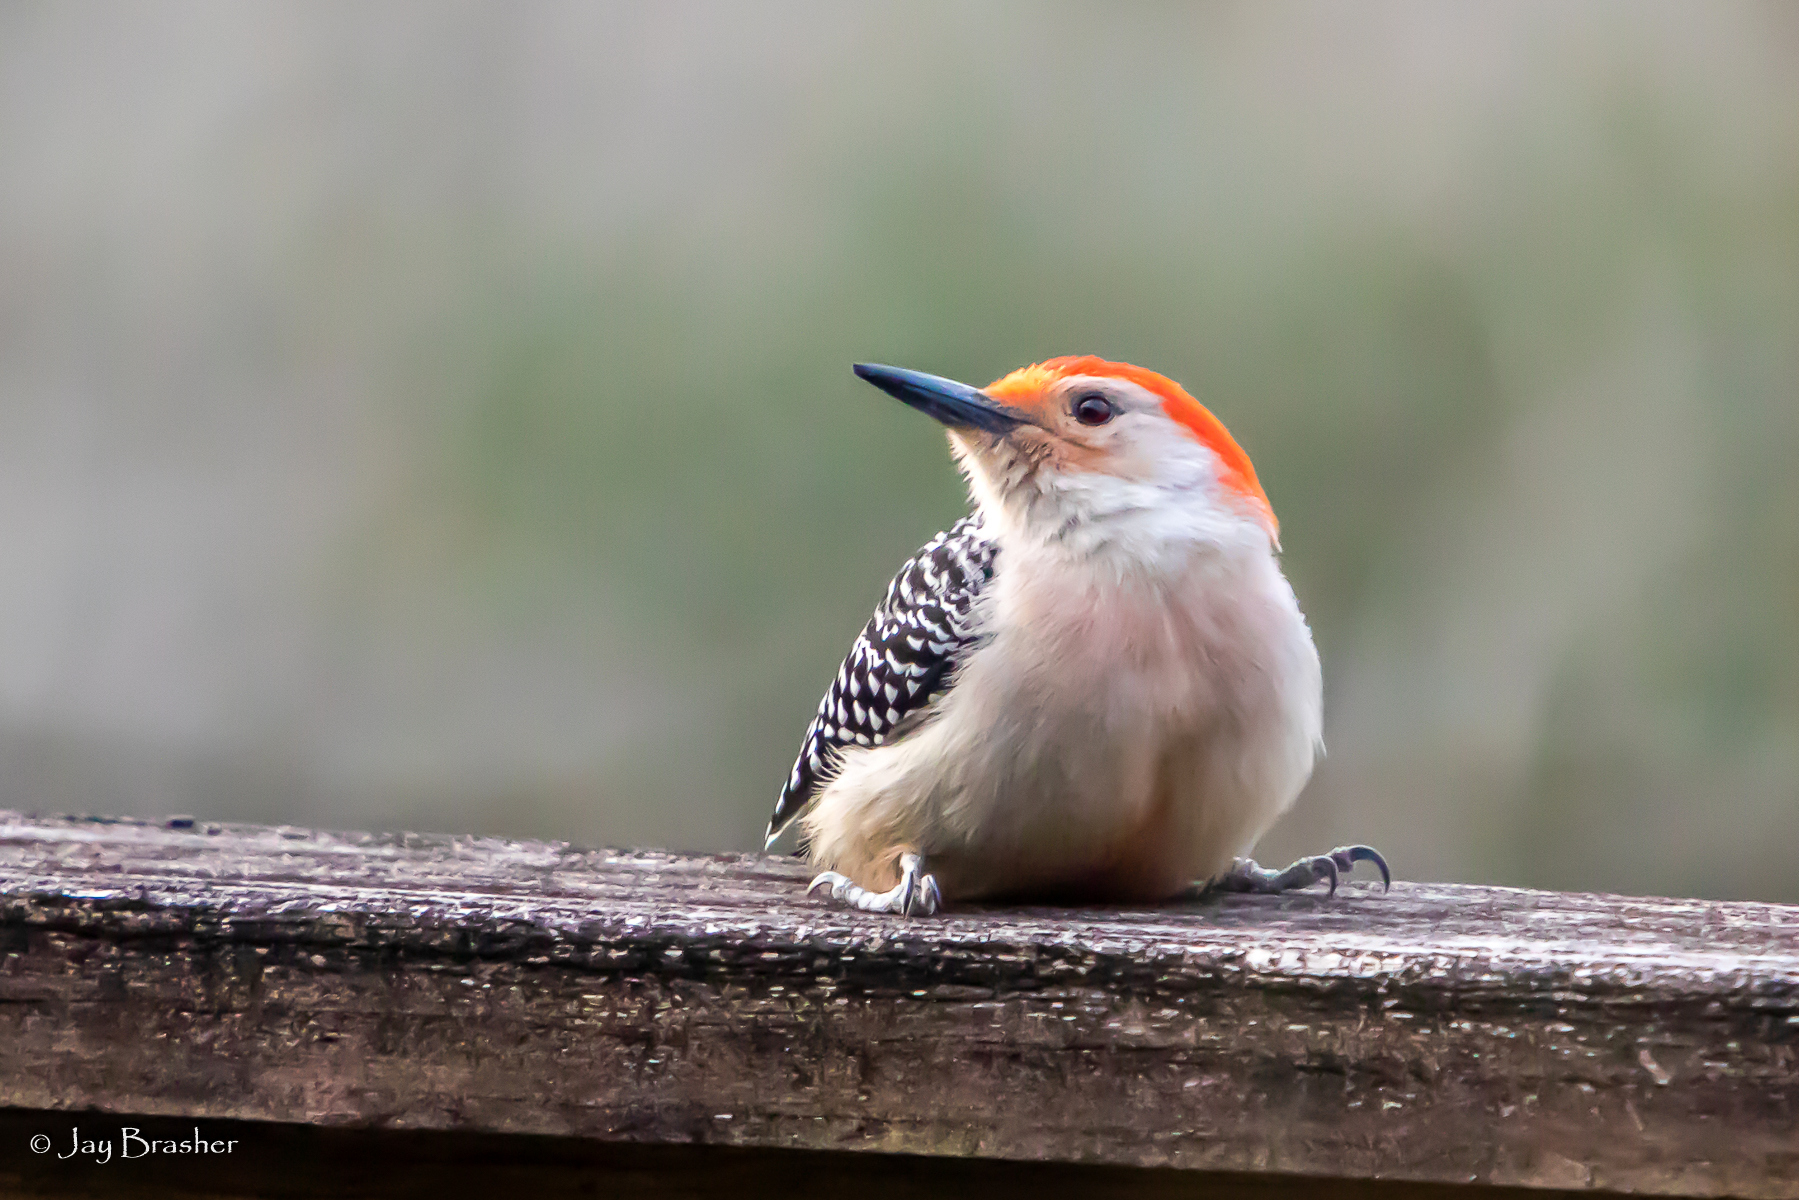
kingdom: Animalia
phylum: Chordata
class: Aves
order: Piciformes
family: Picidae
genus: Melanerpes
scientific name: Melanerpes carolinus
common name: Red-bellied woodpecker
